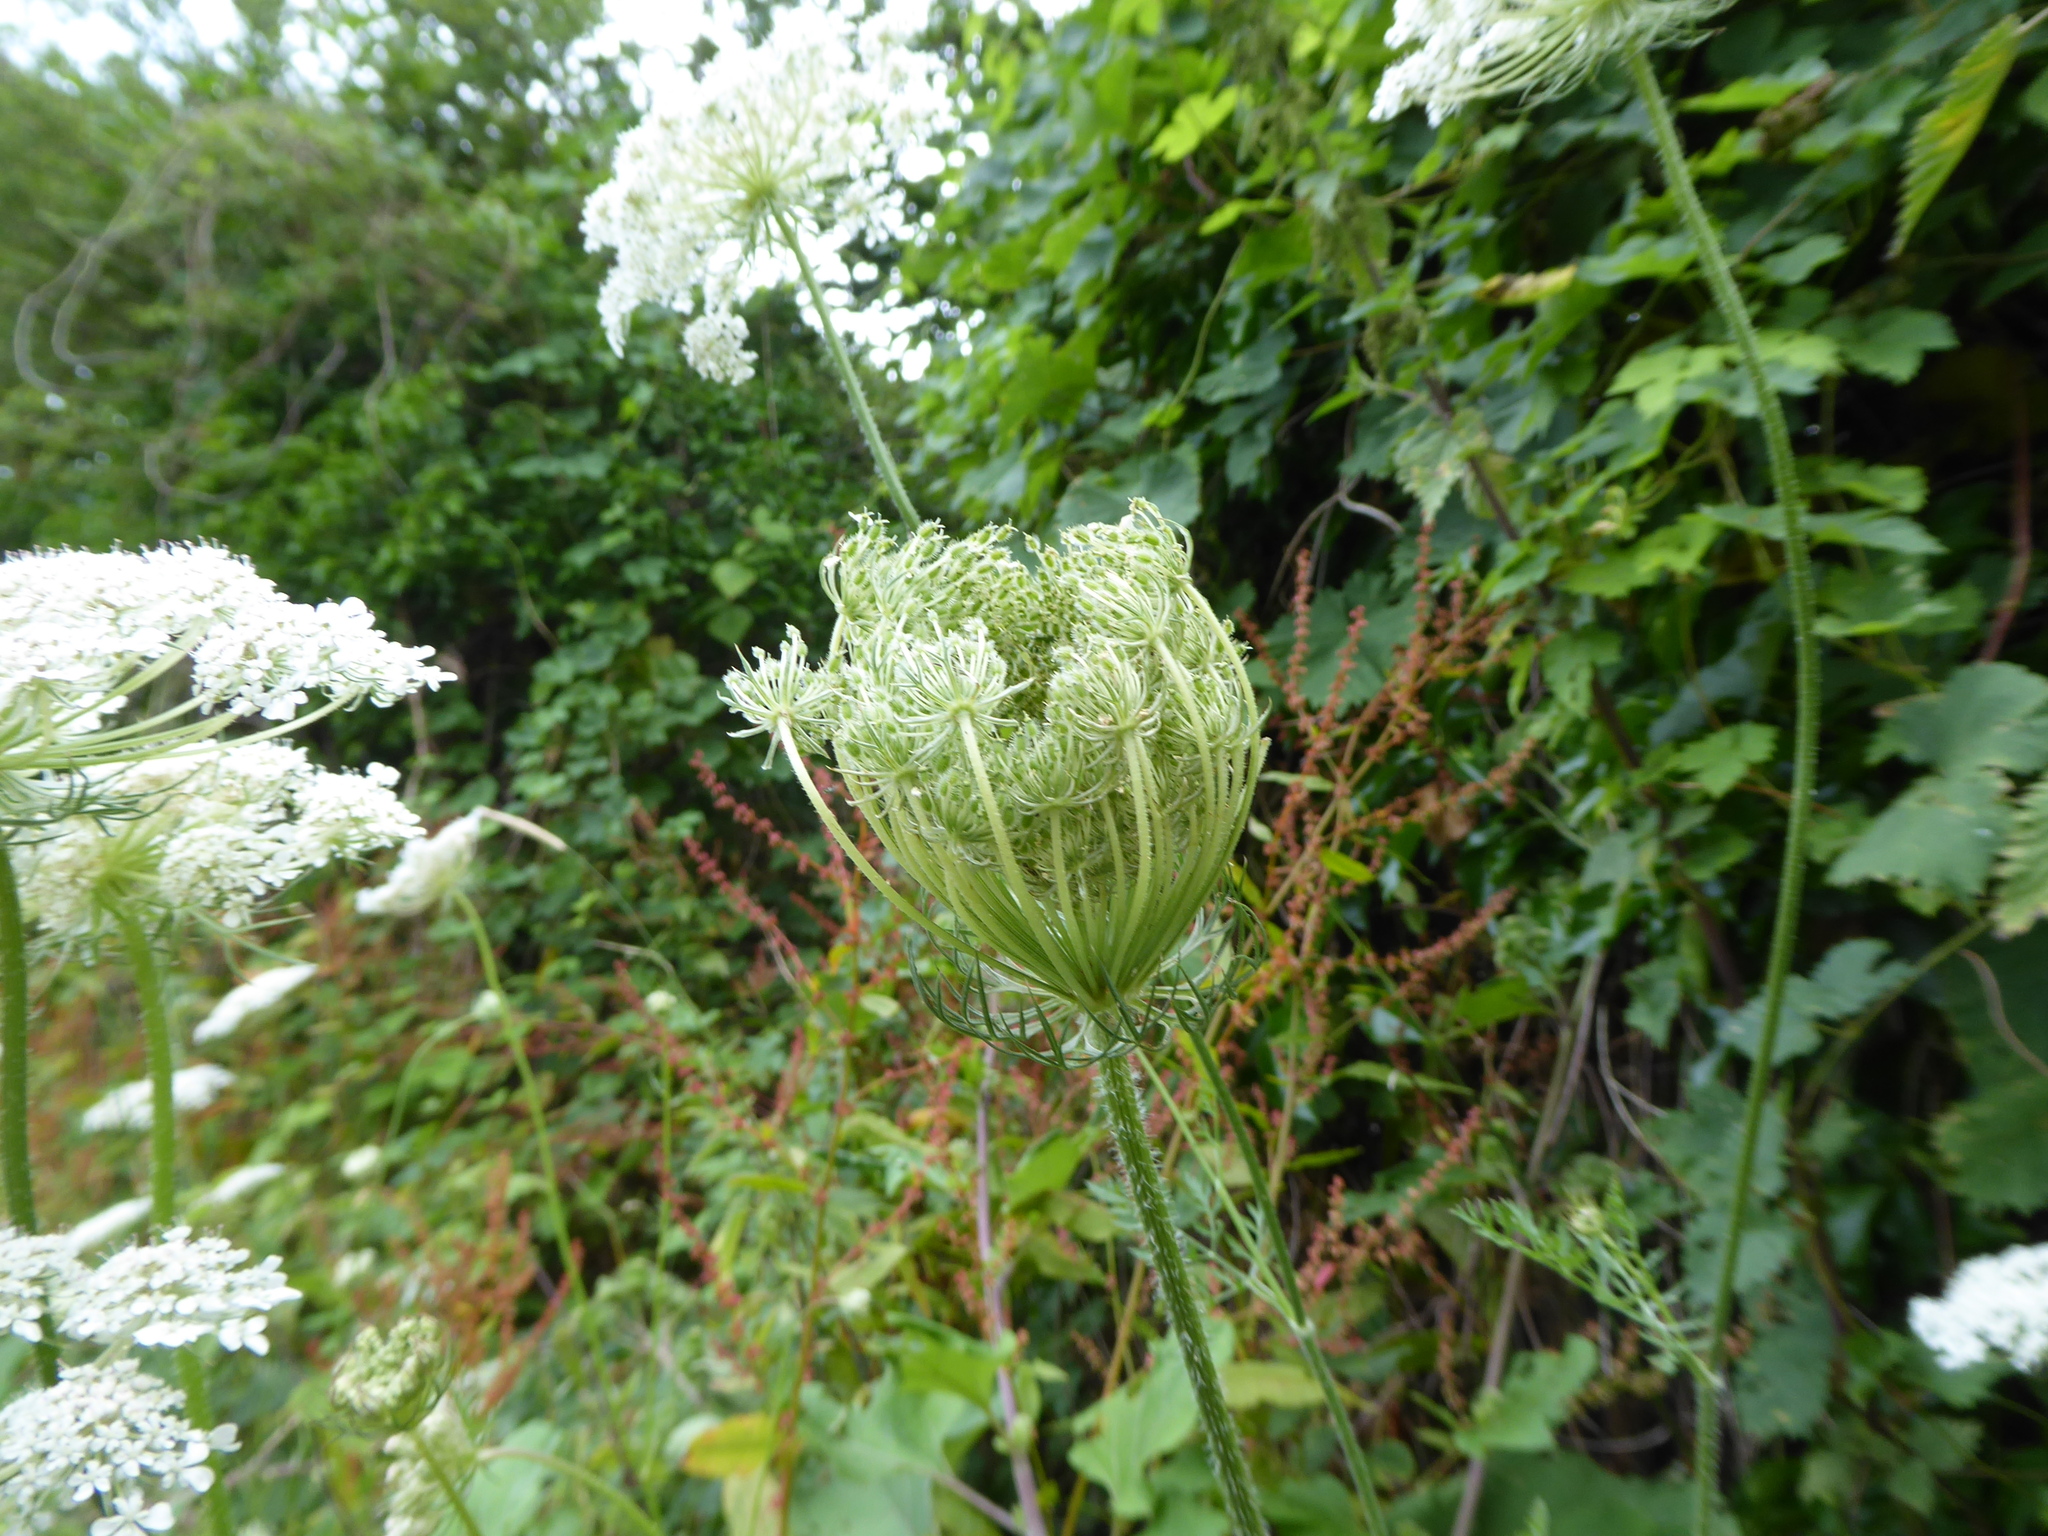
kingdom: Plantae
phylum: Tracheophyta
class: Magnoliopsida
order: Apiales
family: Apiaceae
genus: Daucus
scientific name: Daucus carota
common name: Wild carrot
